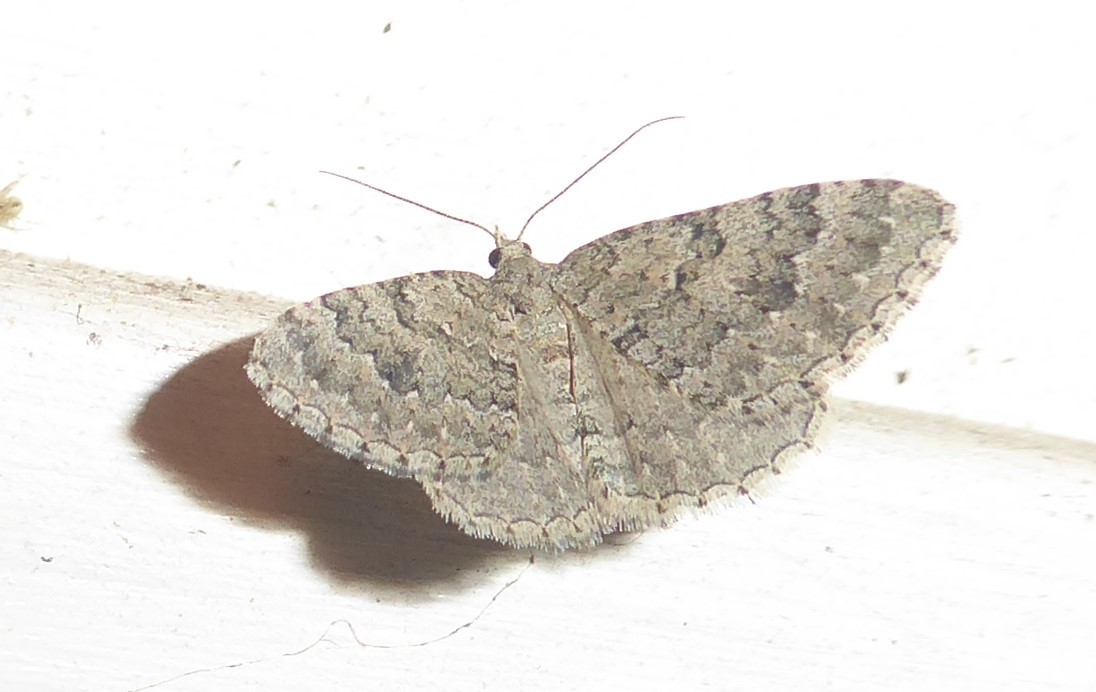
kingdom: Animalia
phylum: Arthropoda
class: Insecta
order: Lepidoptera
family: Geometridae
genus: Helastia
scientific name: Helastia corcularia
